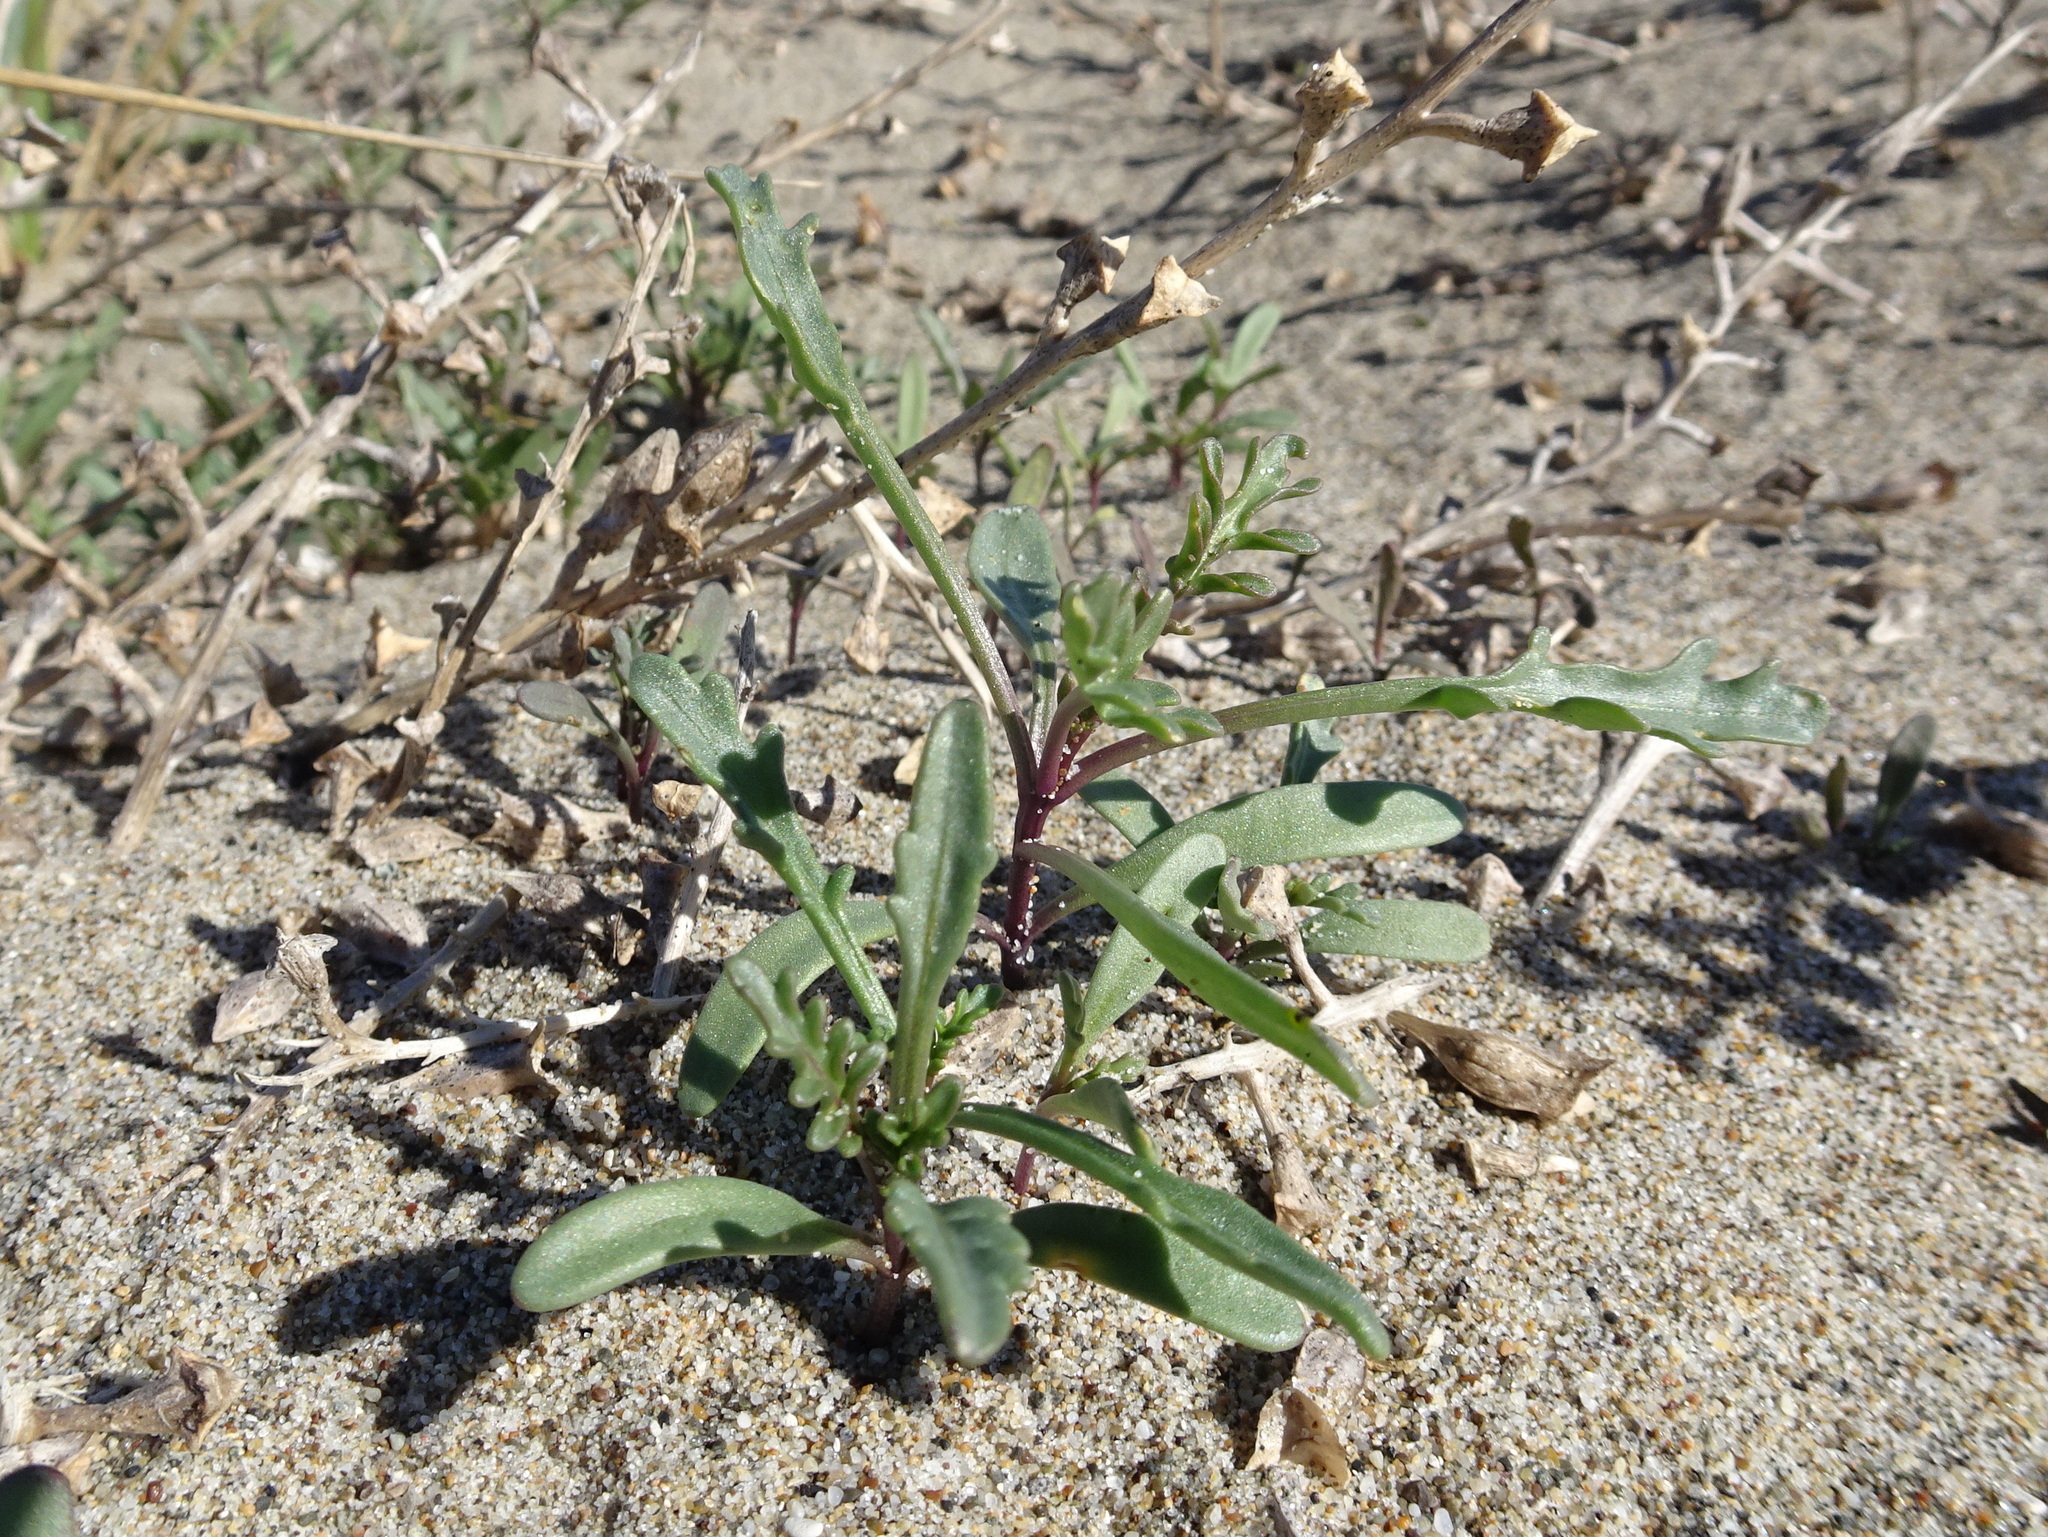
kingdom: Plantae
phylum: Tracheophyta
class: Magnoliopsida
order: Brassicales
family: Brassicaceae
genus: Cakile
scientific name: Cakile maritima
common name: Sea rocket
